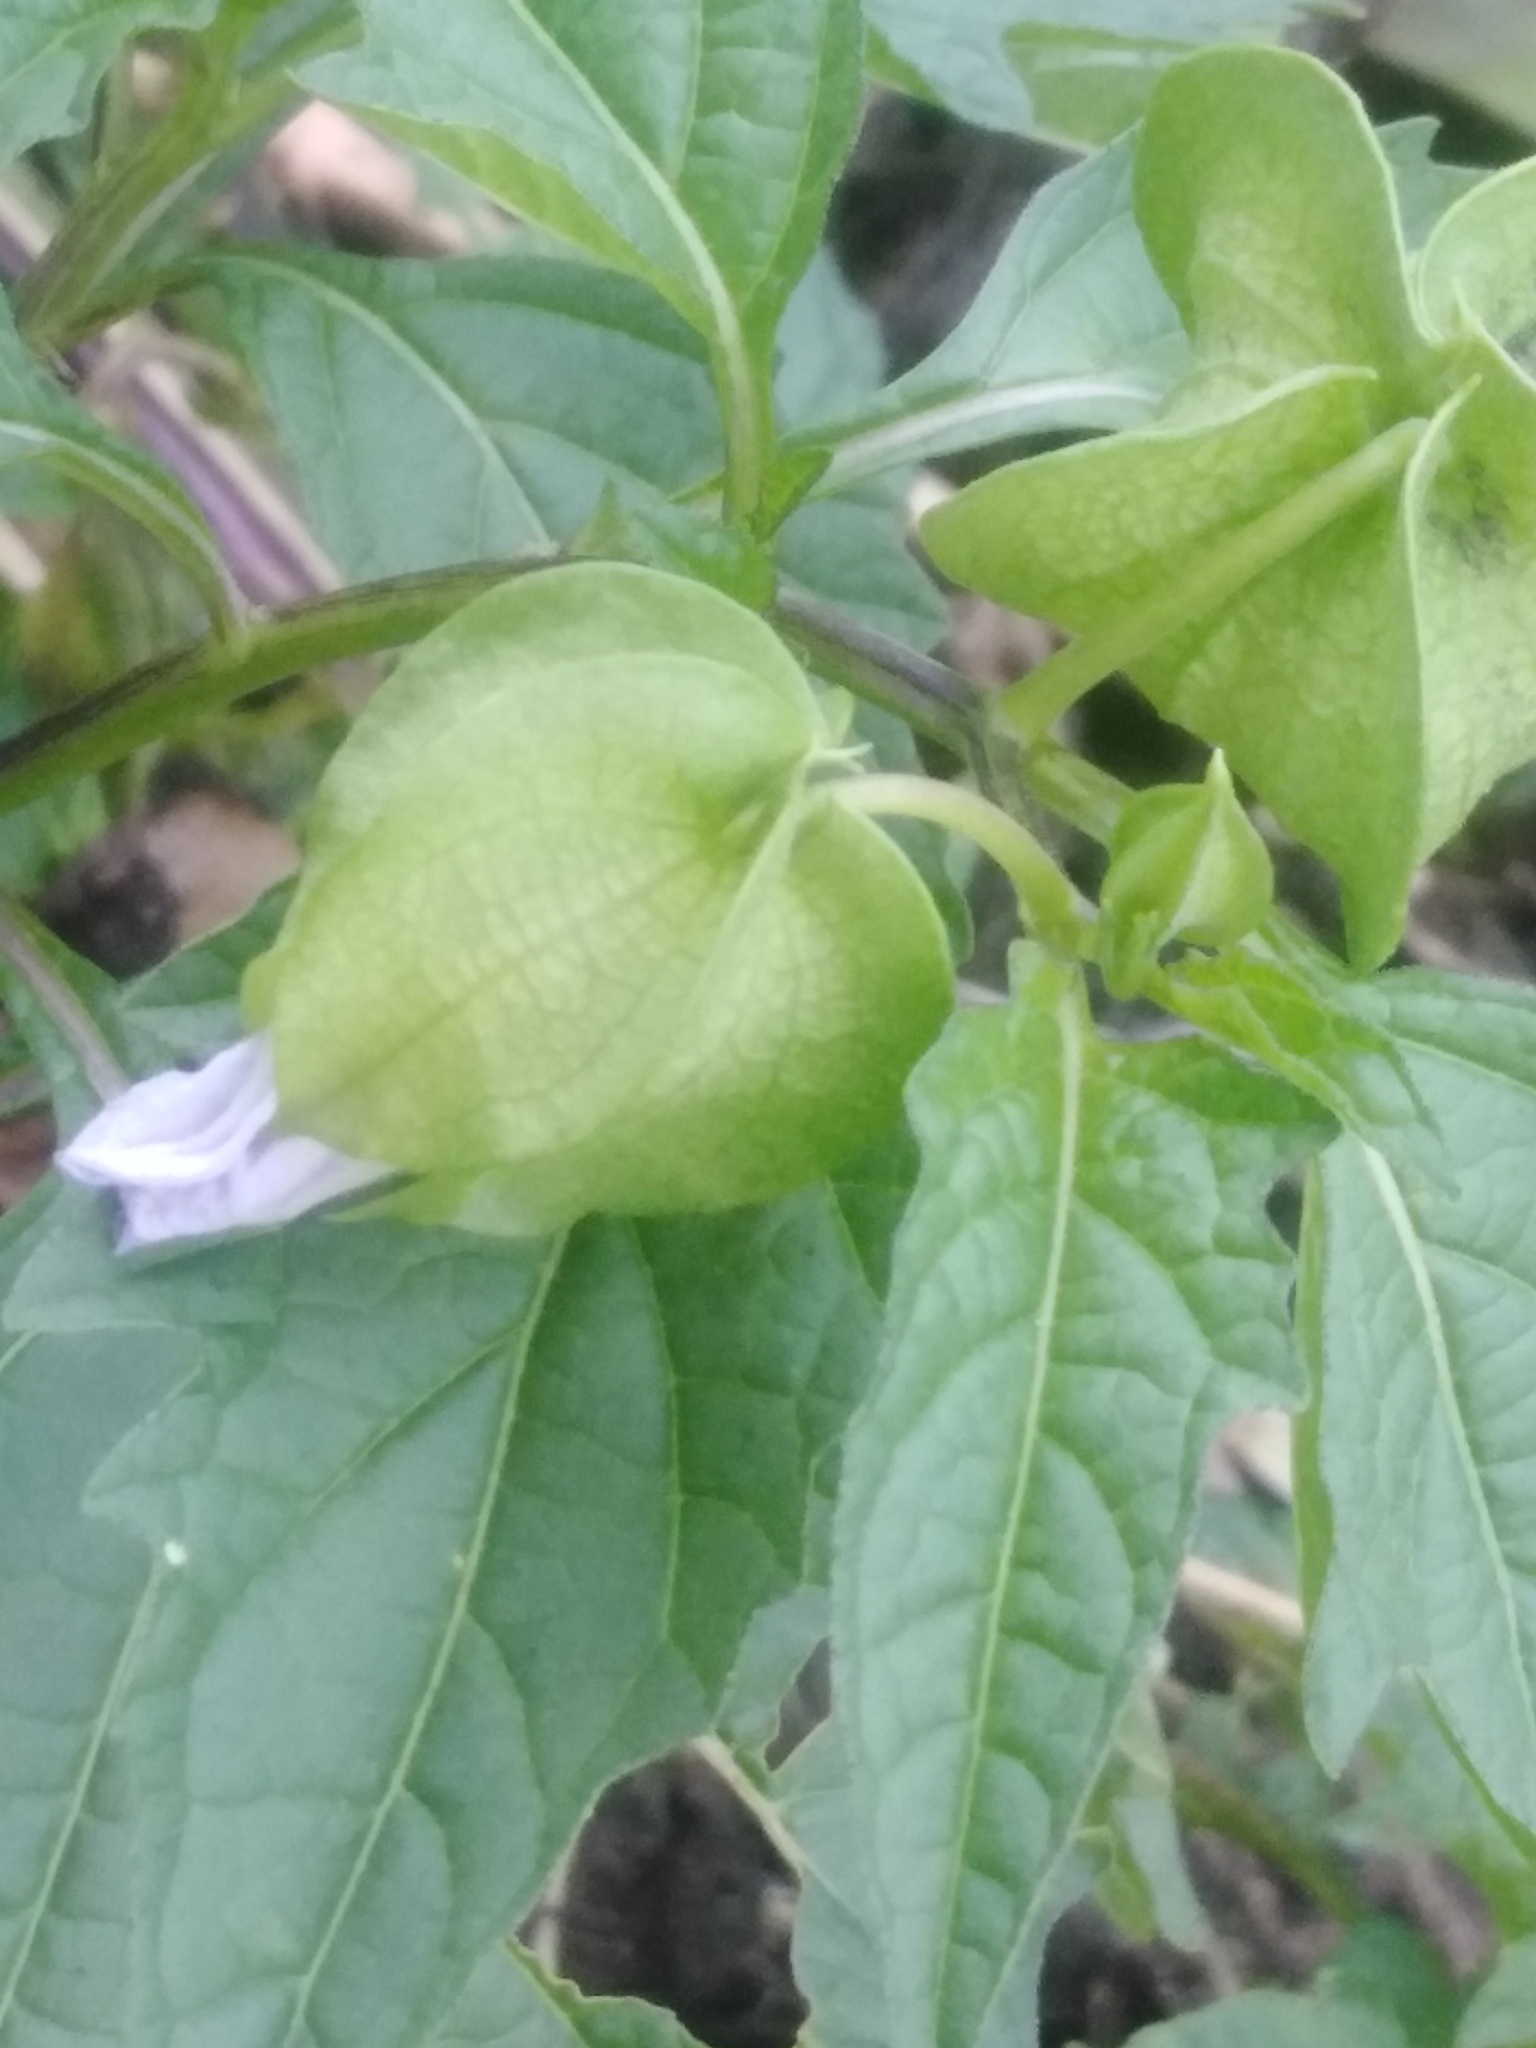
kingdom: Plantae
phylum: Tracheophyta
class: Magnoliopsida
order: Solanales
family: Solanaceae
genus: Nicandra
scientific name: Nicandra physalodes
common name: Apple-of-peru
